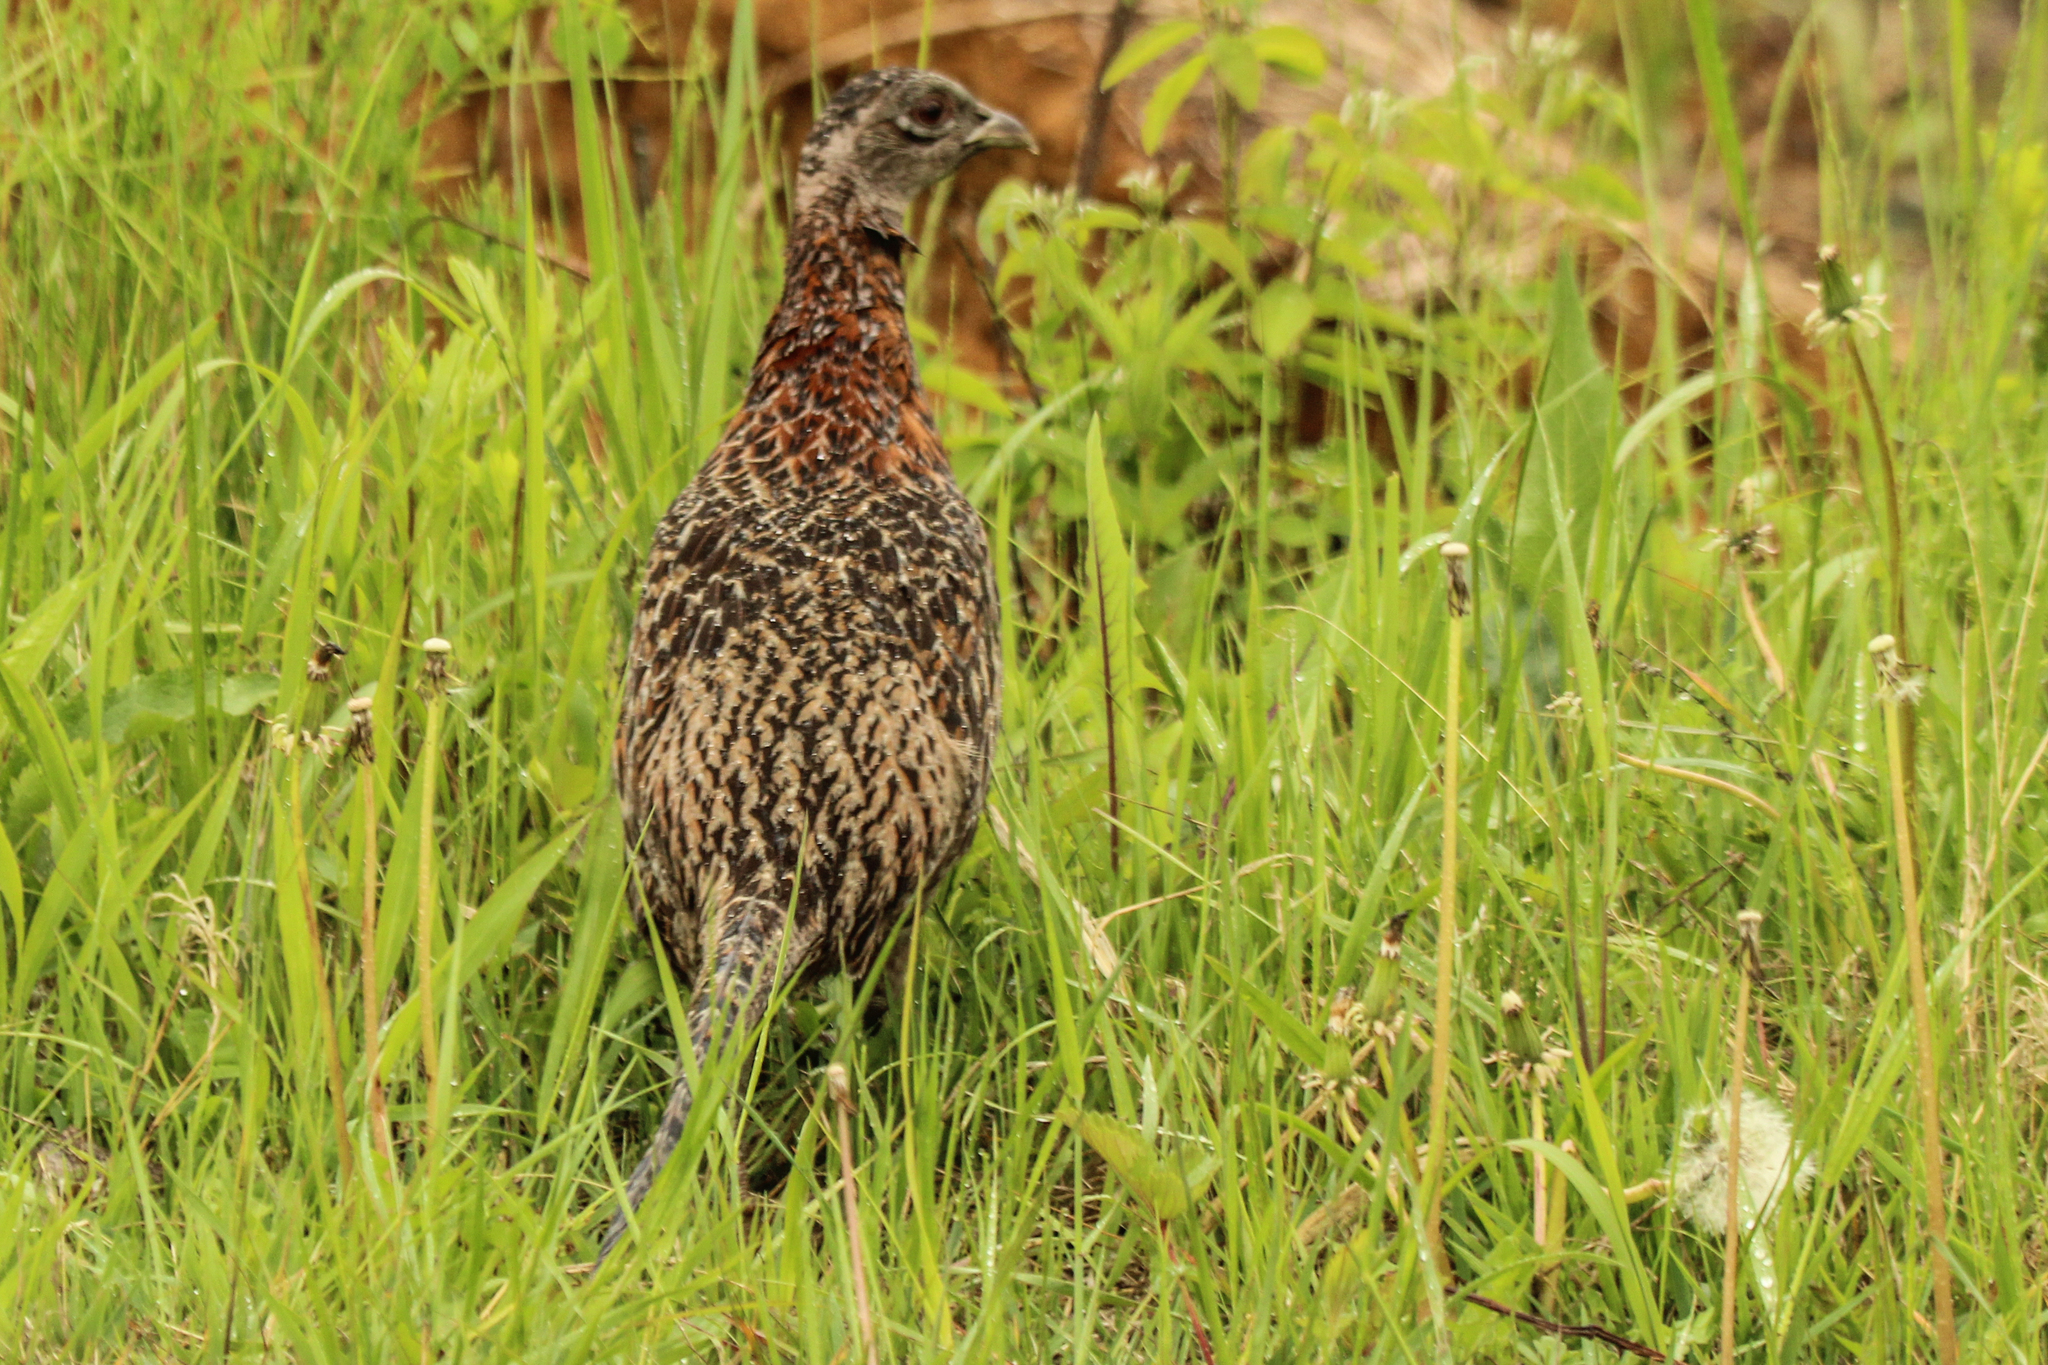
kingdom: Animalia
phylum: Chordata
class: Aves
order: Galliformes
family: Phasianidae
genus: Phasianus
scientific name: Phasianus colchicus
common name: Common pheasant
